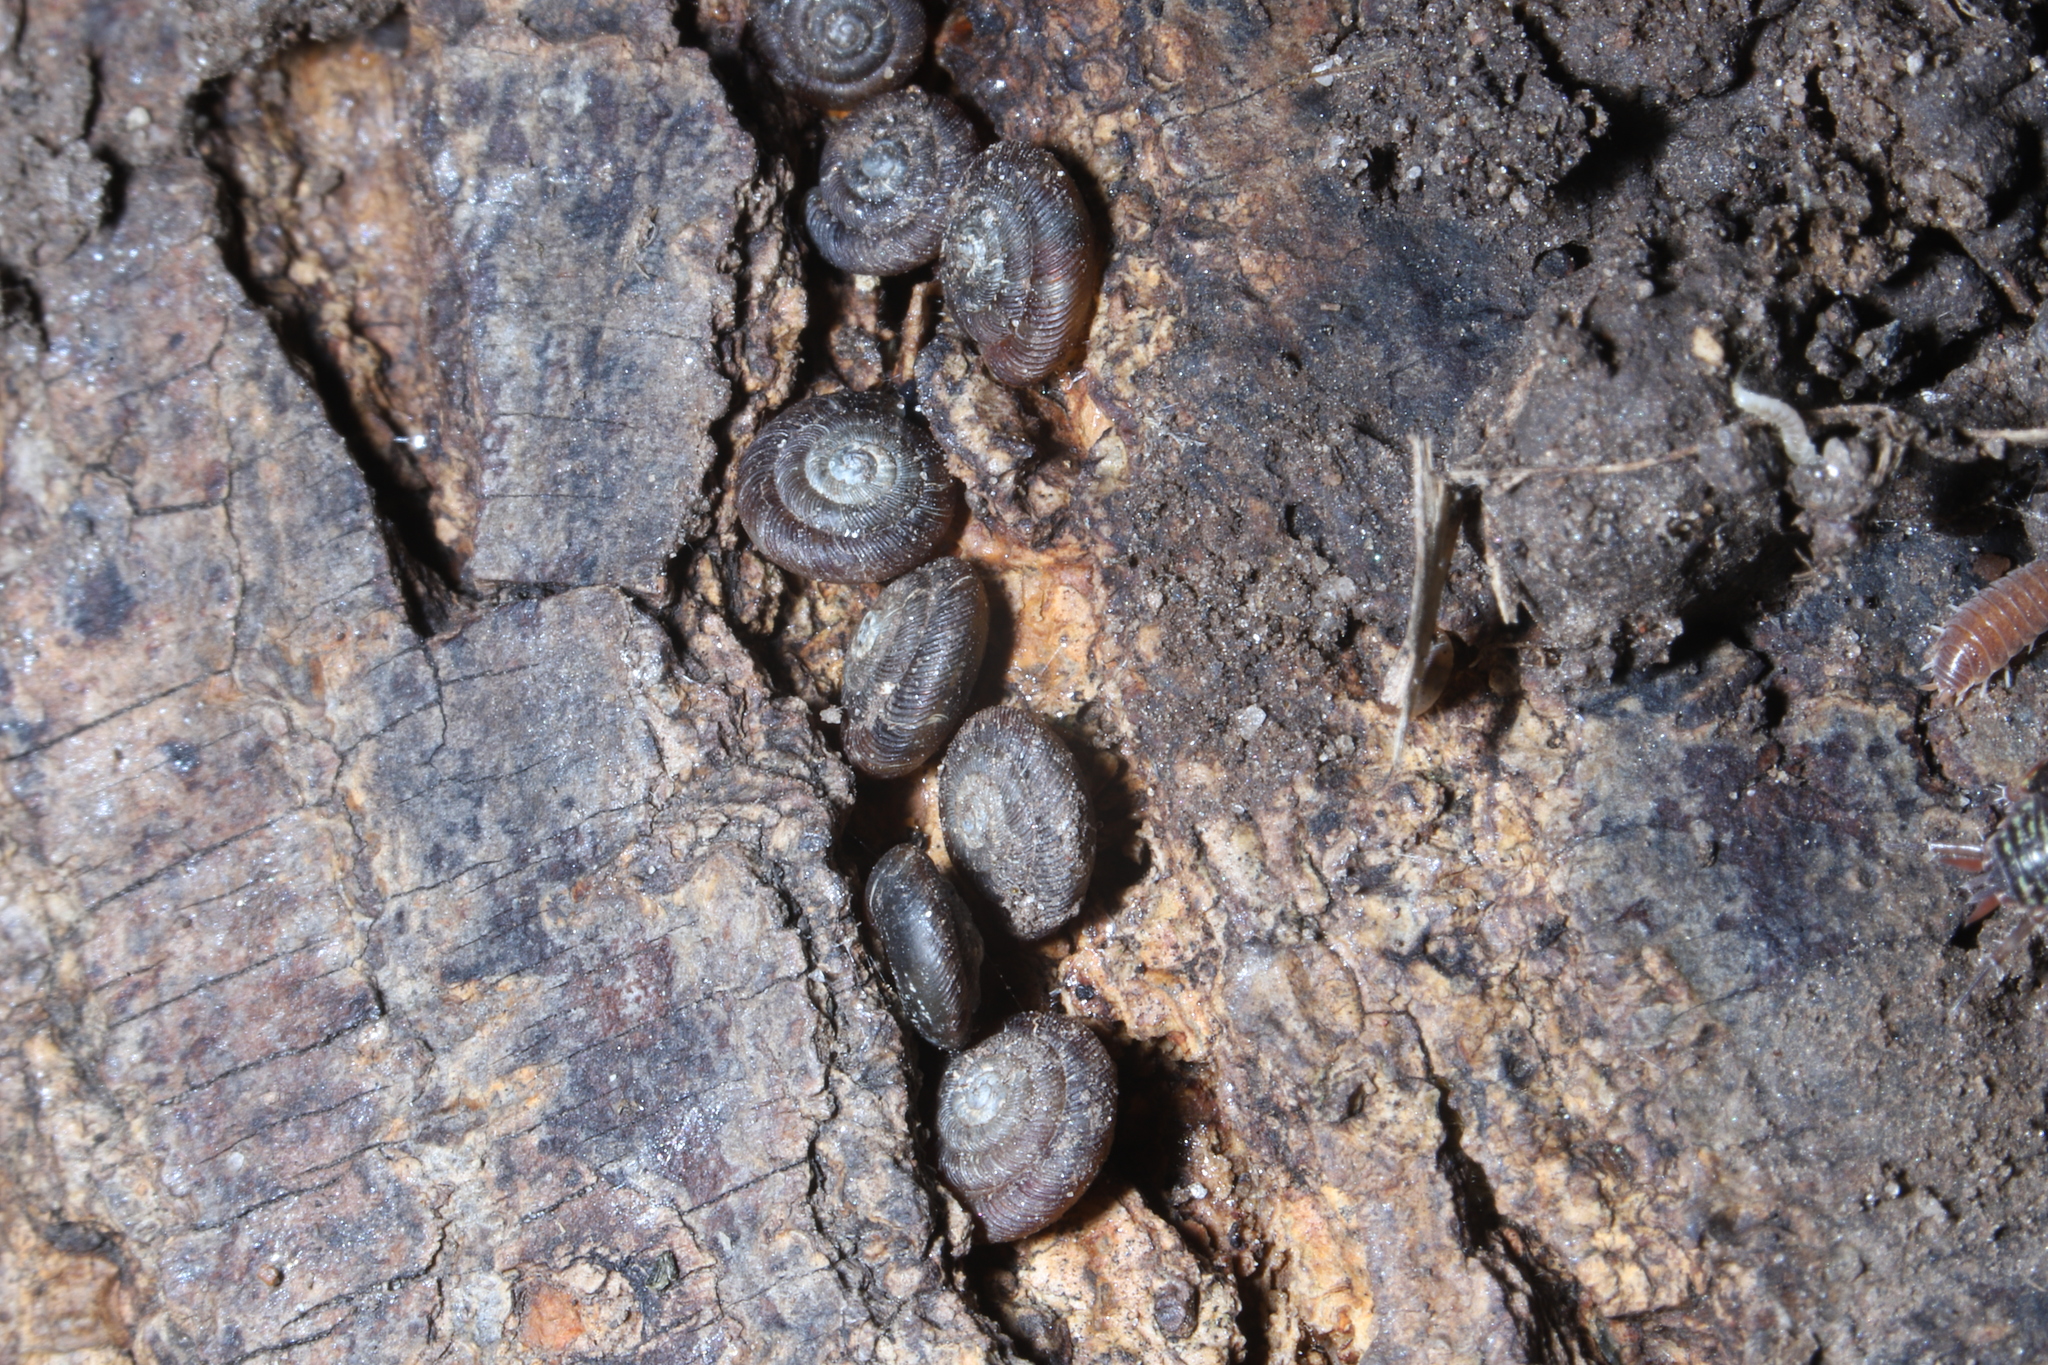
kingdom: Animalia
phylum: Mollusca
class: Gastropoda
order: Stylommatophora
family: Discidae
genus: Discus
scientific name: Discus rotundatus
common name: Rounded snail
